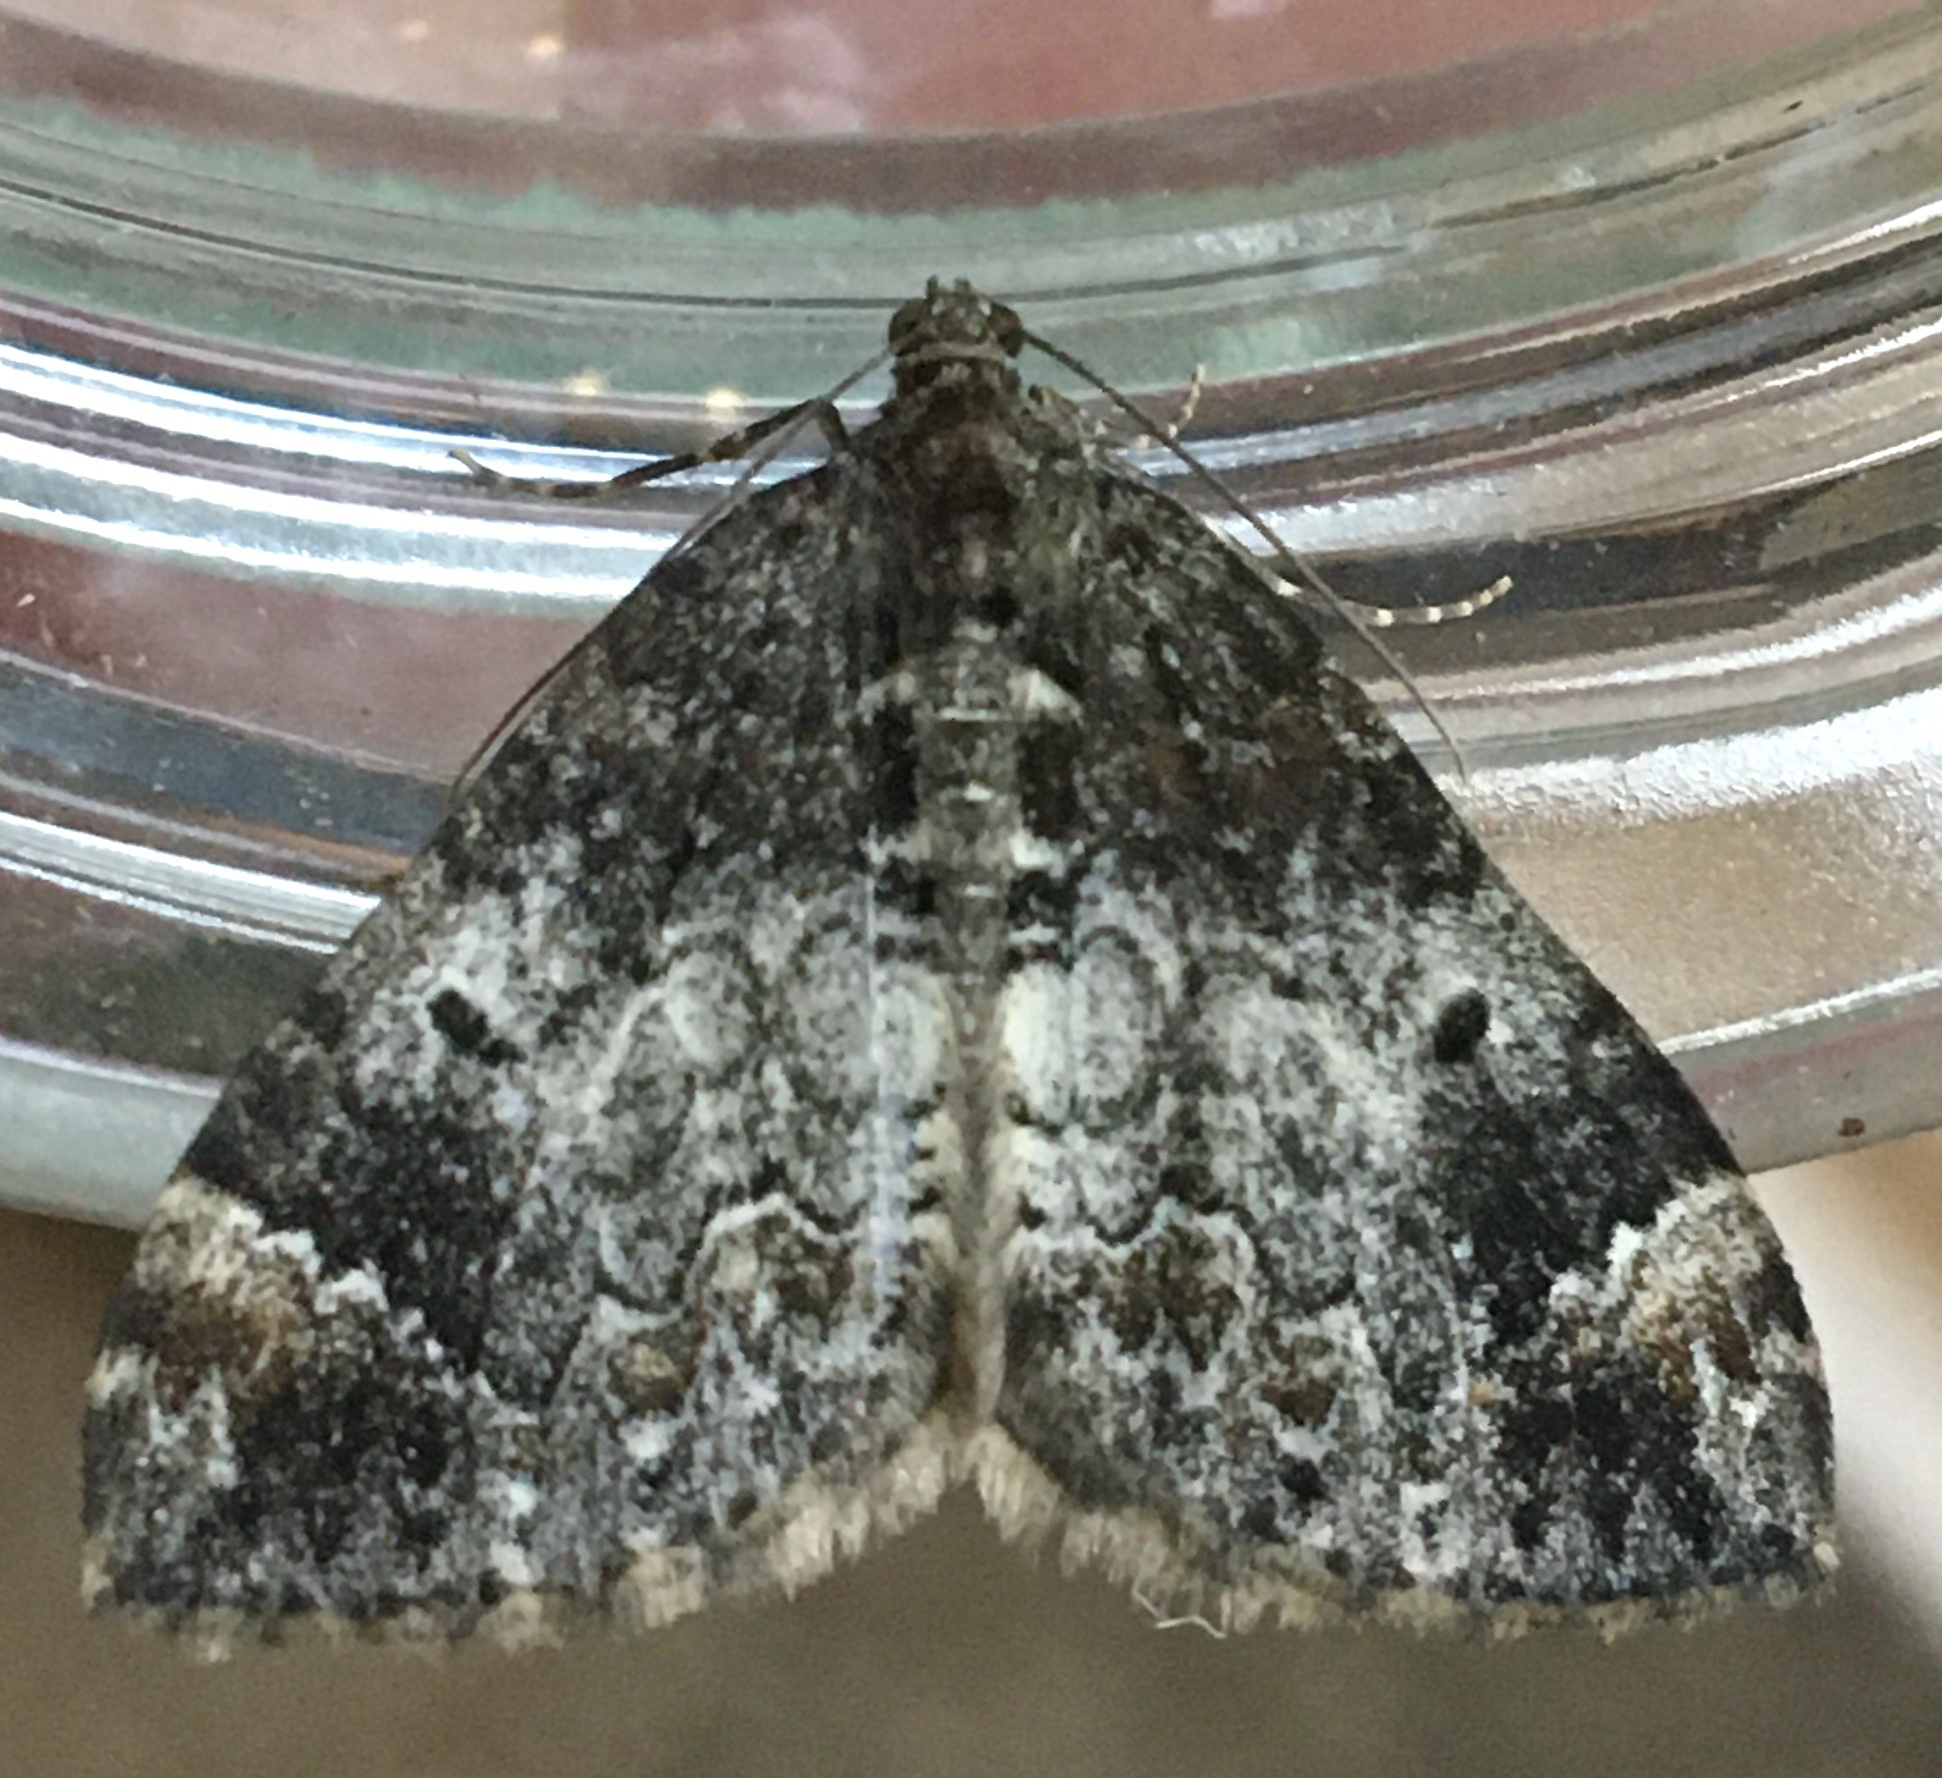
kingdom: Animalia
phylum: Arthropoda
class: Insecta
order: Lepidoptera
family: Geometridae
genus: Dysstroma
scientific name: Dysstroma truncata
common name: Common marbled carpet
